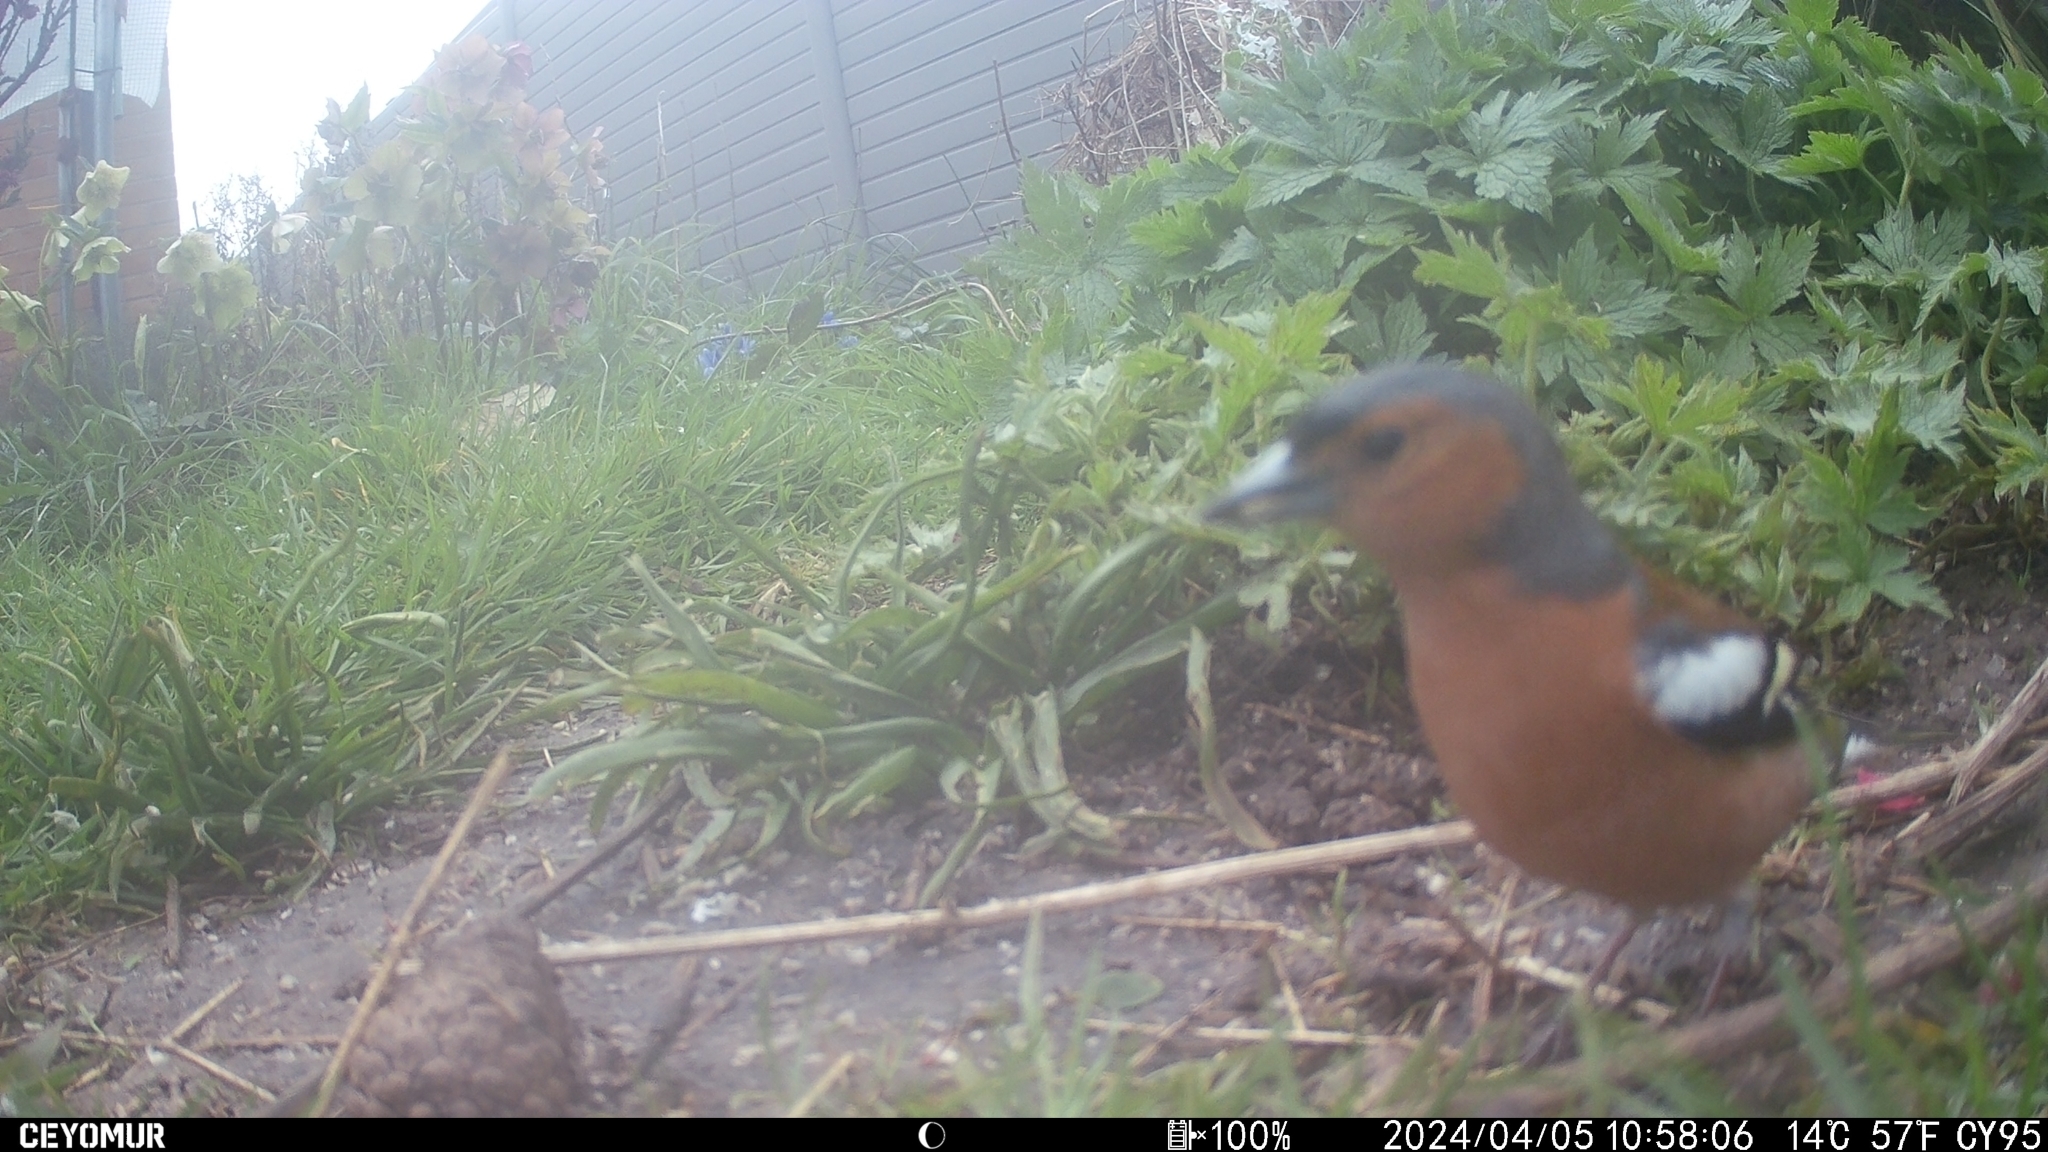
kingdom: Animalia
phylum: Chordata
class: Aves
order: Passeriformes
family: Fringillidae
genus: Fringilla
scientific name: Fringilla coelebs
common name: Common chaffinch
